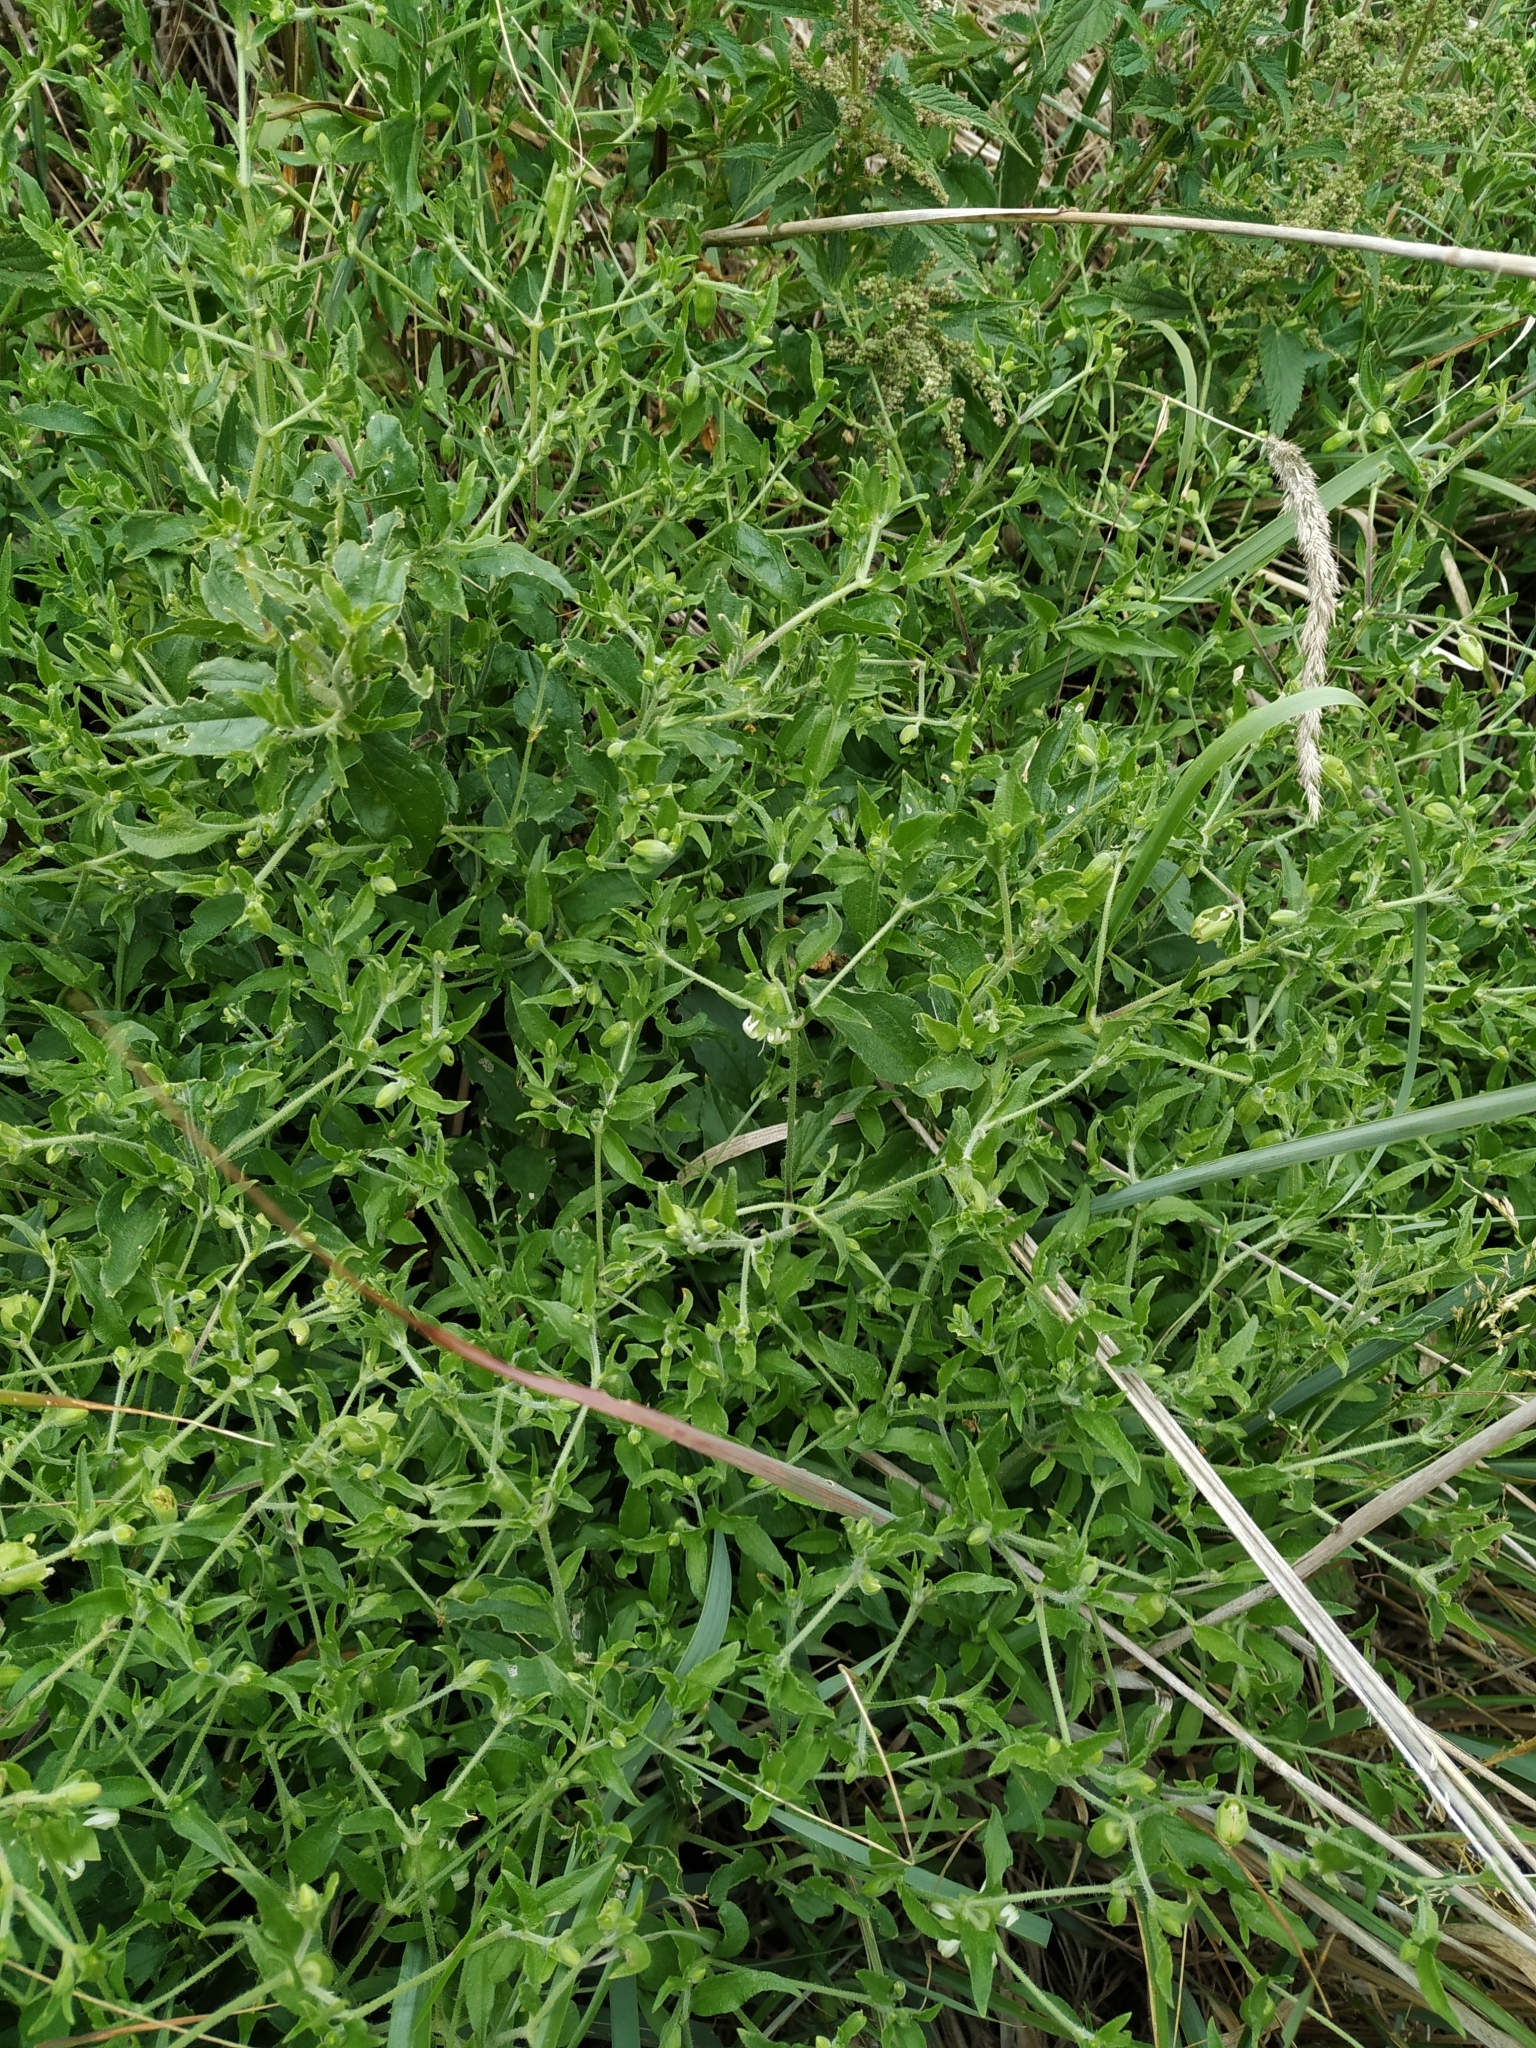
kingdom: Plantae
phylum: Tracheophyta
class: Magnoliopsida
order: Caryophyllales
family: Caryophyllaceae
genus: Silene
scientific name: Silene baccifera
